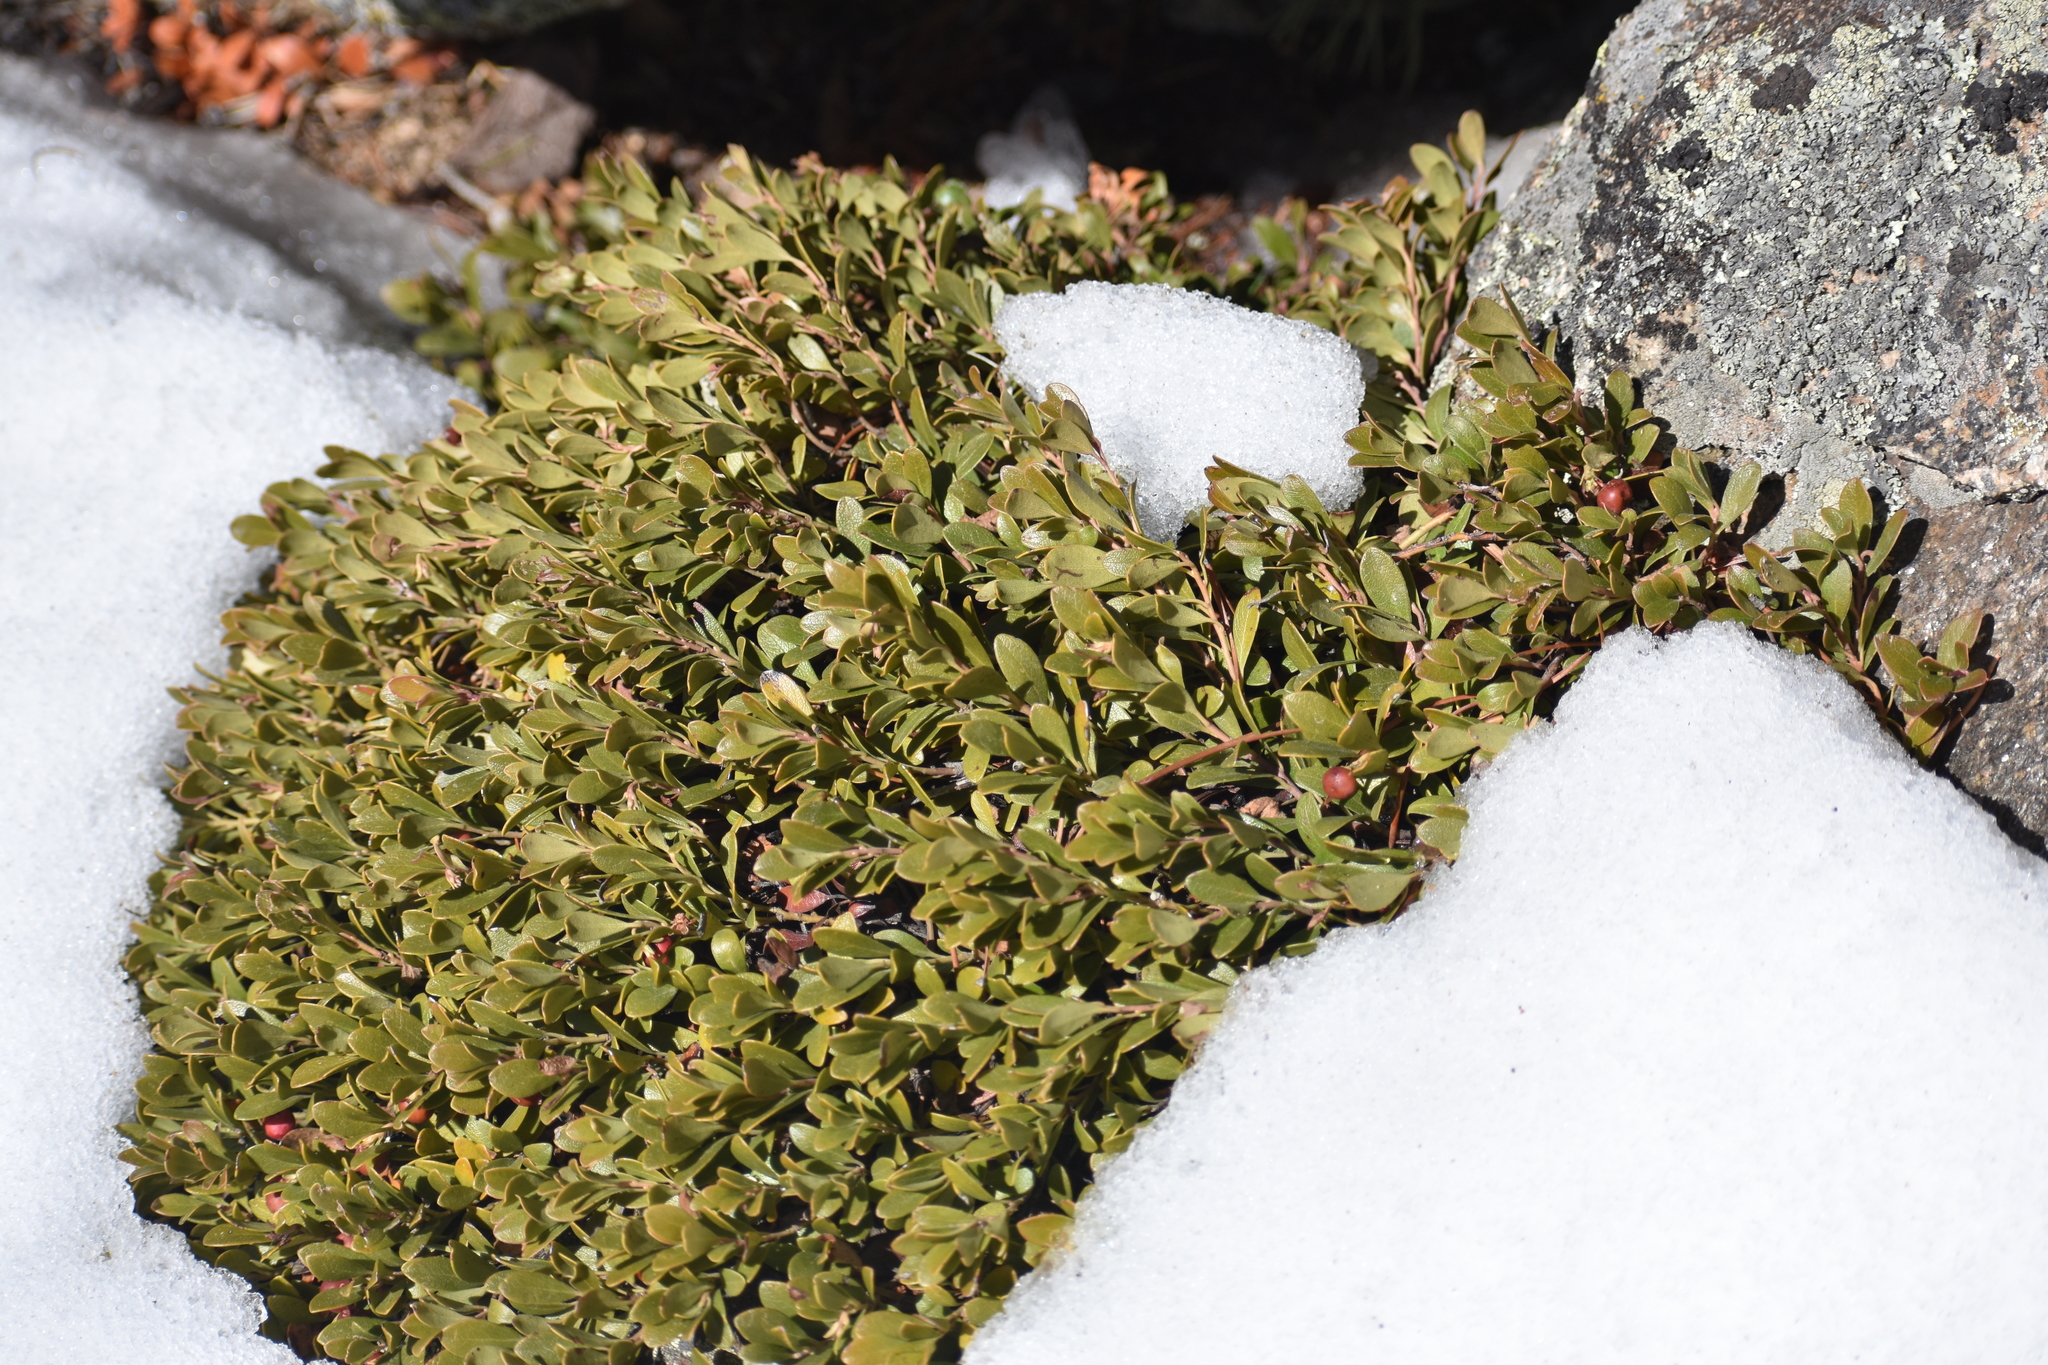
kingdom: Plantae
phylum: Tracheophyta
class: Magnoliopsida
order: Ericales
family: Ericaceae
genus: Arctostaphylos
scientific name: Arctostaphylos uva-ursi
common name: Bearberry
